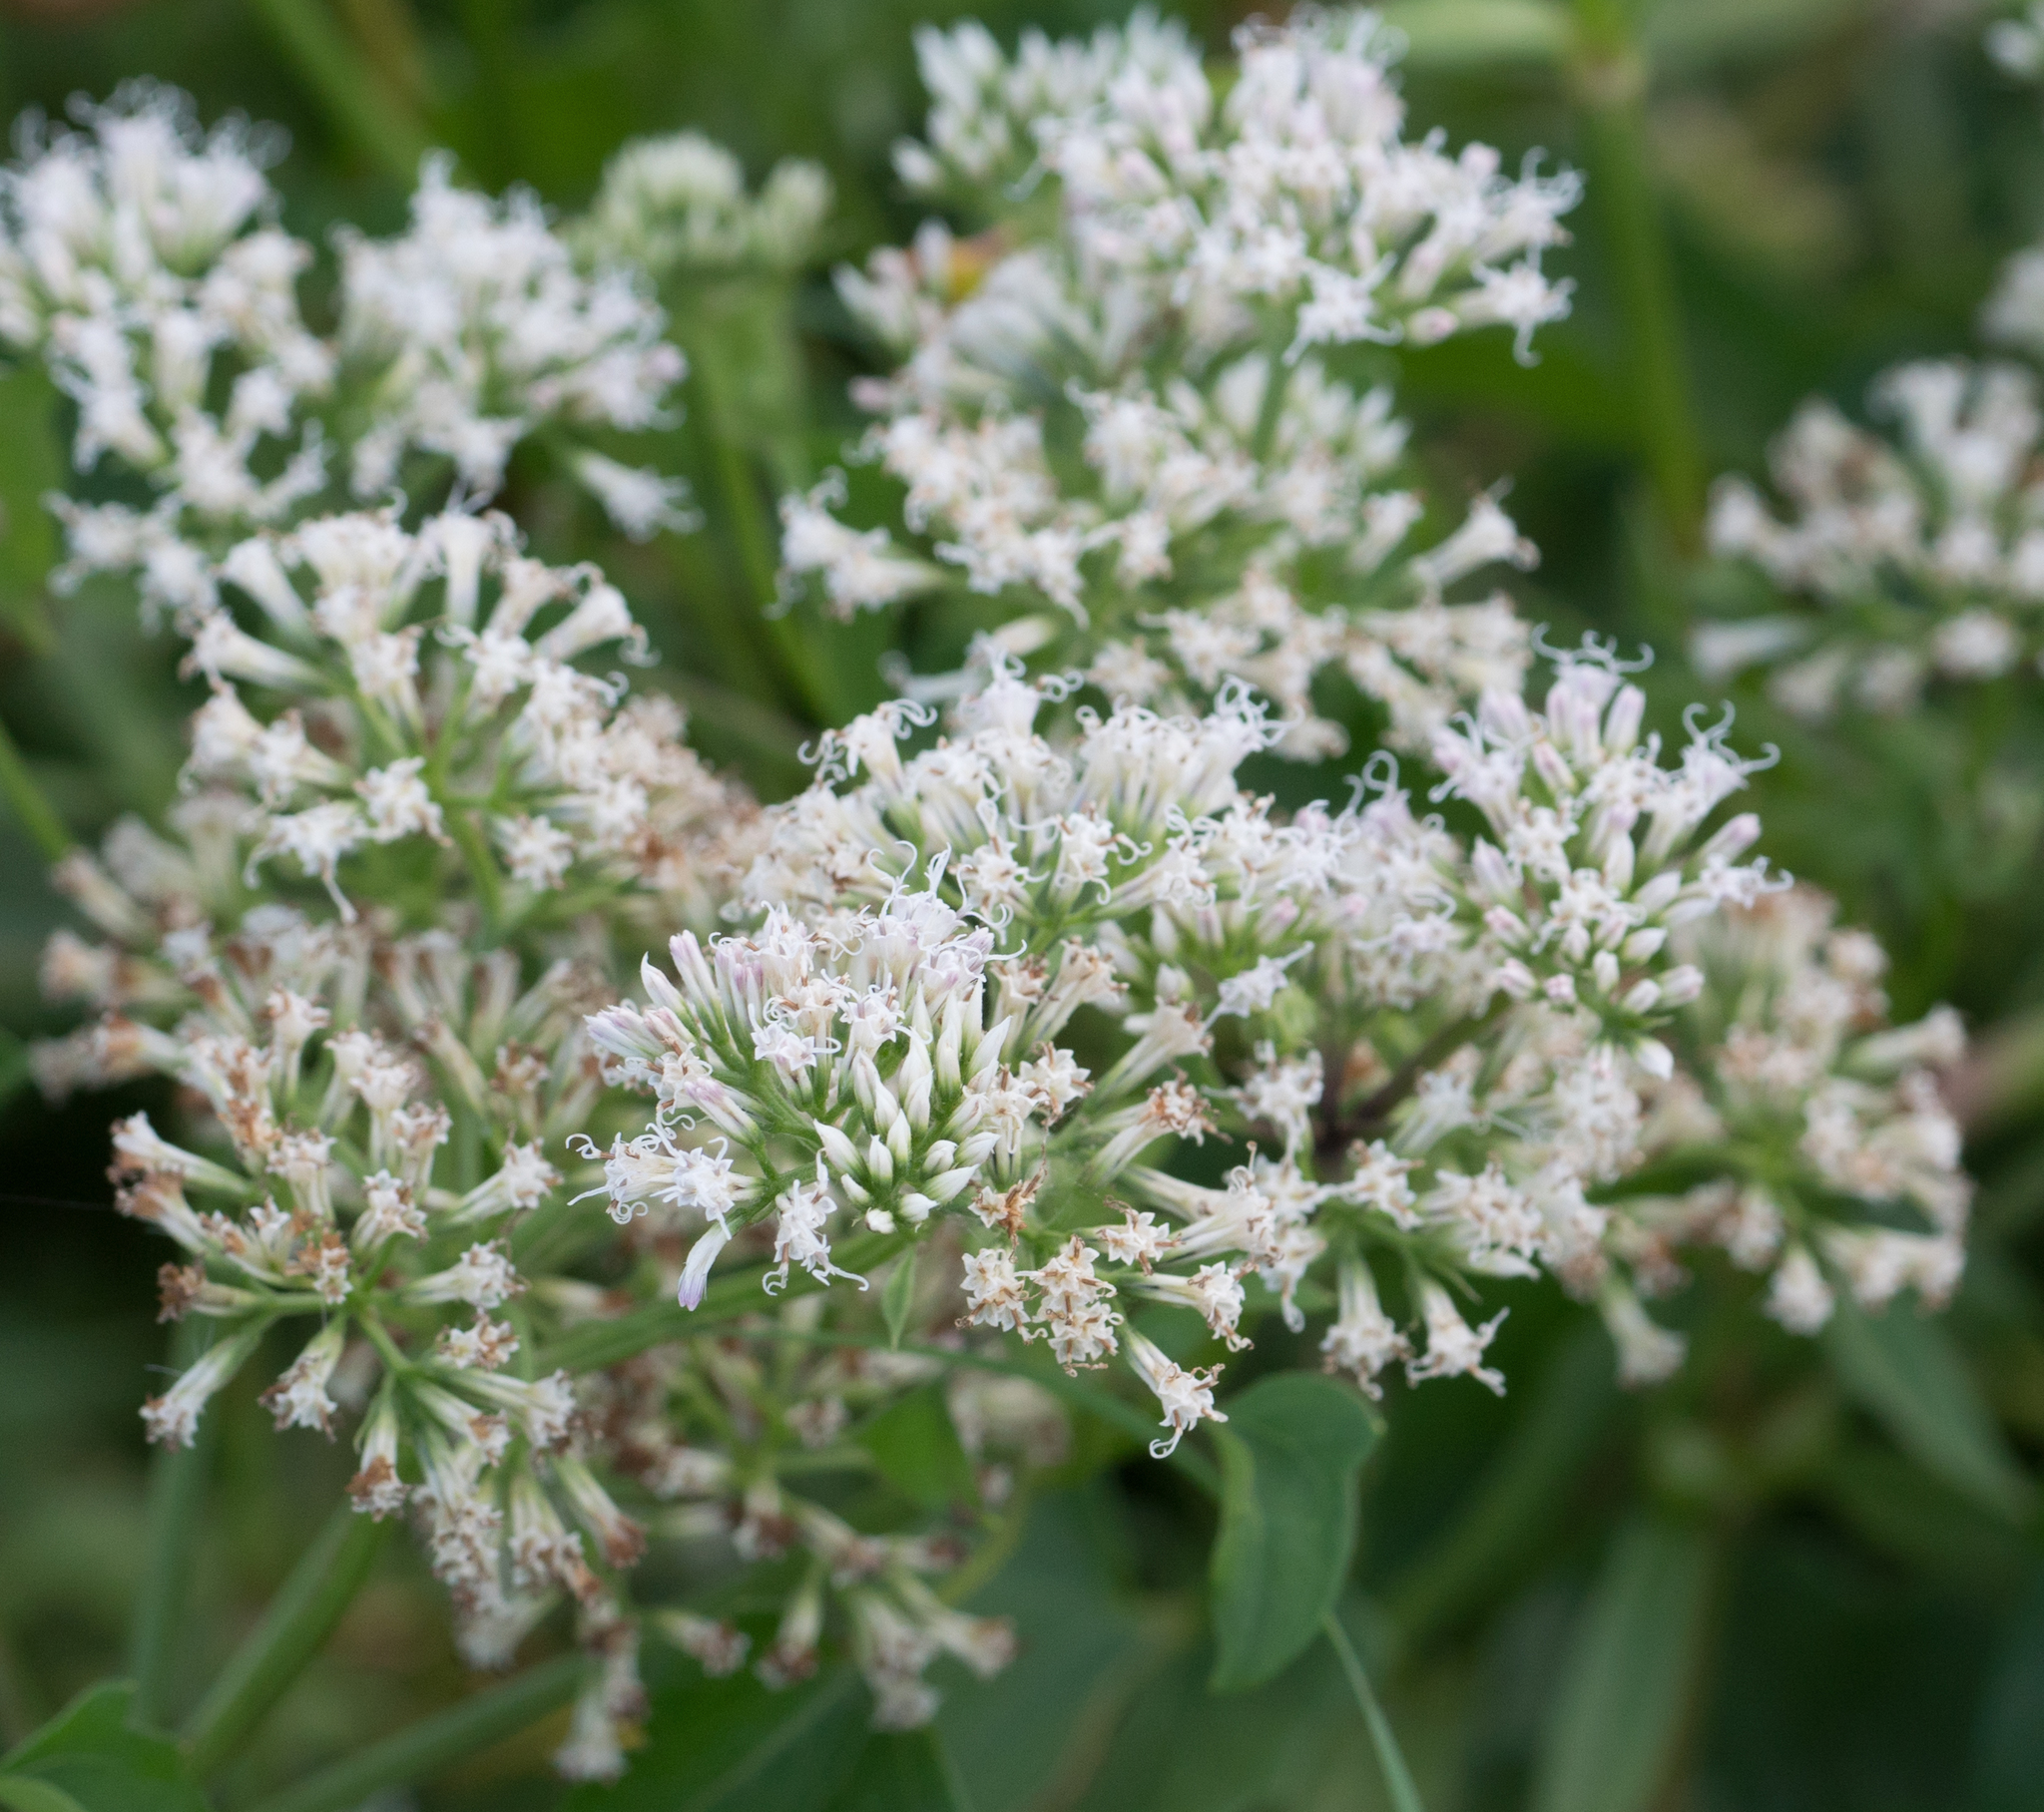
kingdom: Plantae
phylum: Tracheophyta
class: Magnoliopsida
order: Asterales
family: Asteraceae
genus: Mikania
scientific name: Mikania scandens
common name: Climbing hempvine
